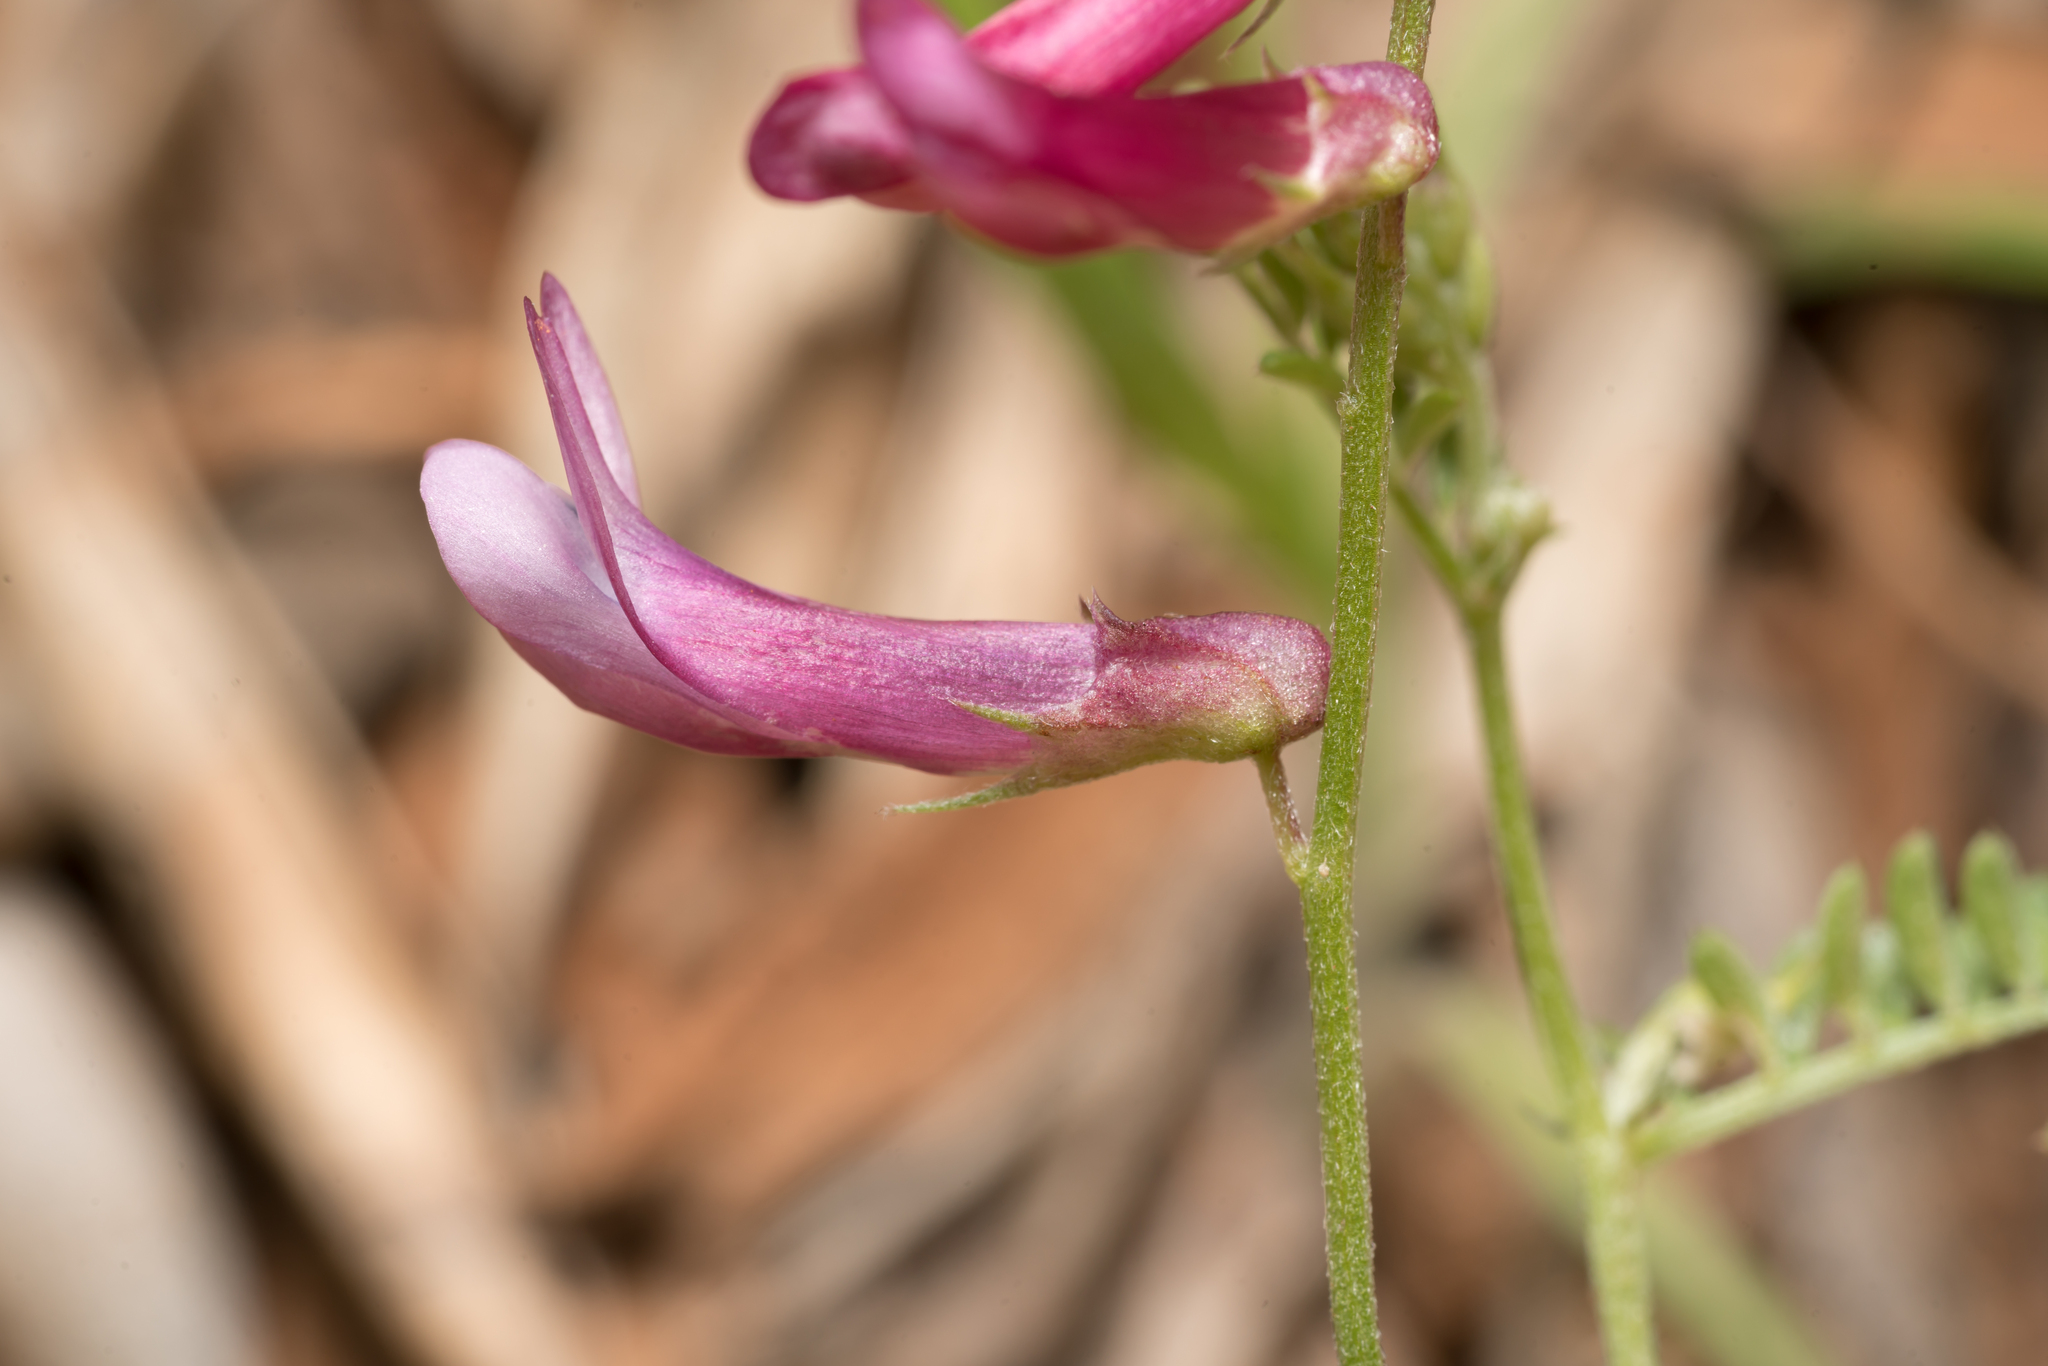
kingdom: Plantae
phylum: Tracheophyta
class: Magnoliopsida
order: Fabales
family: Fabaceae
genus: Vicia
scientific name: Vicia eriocarpa
